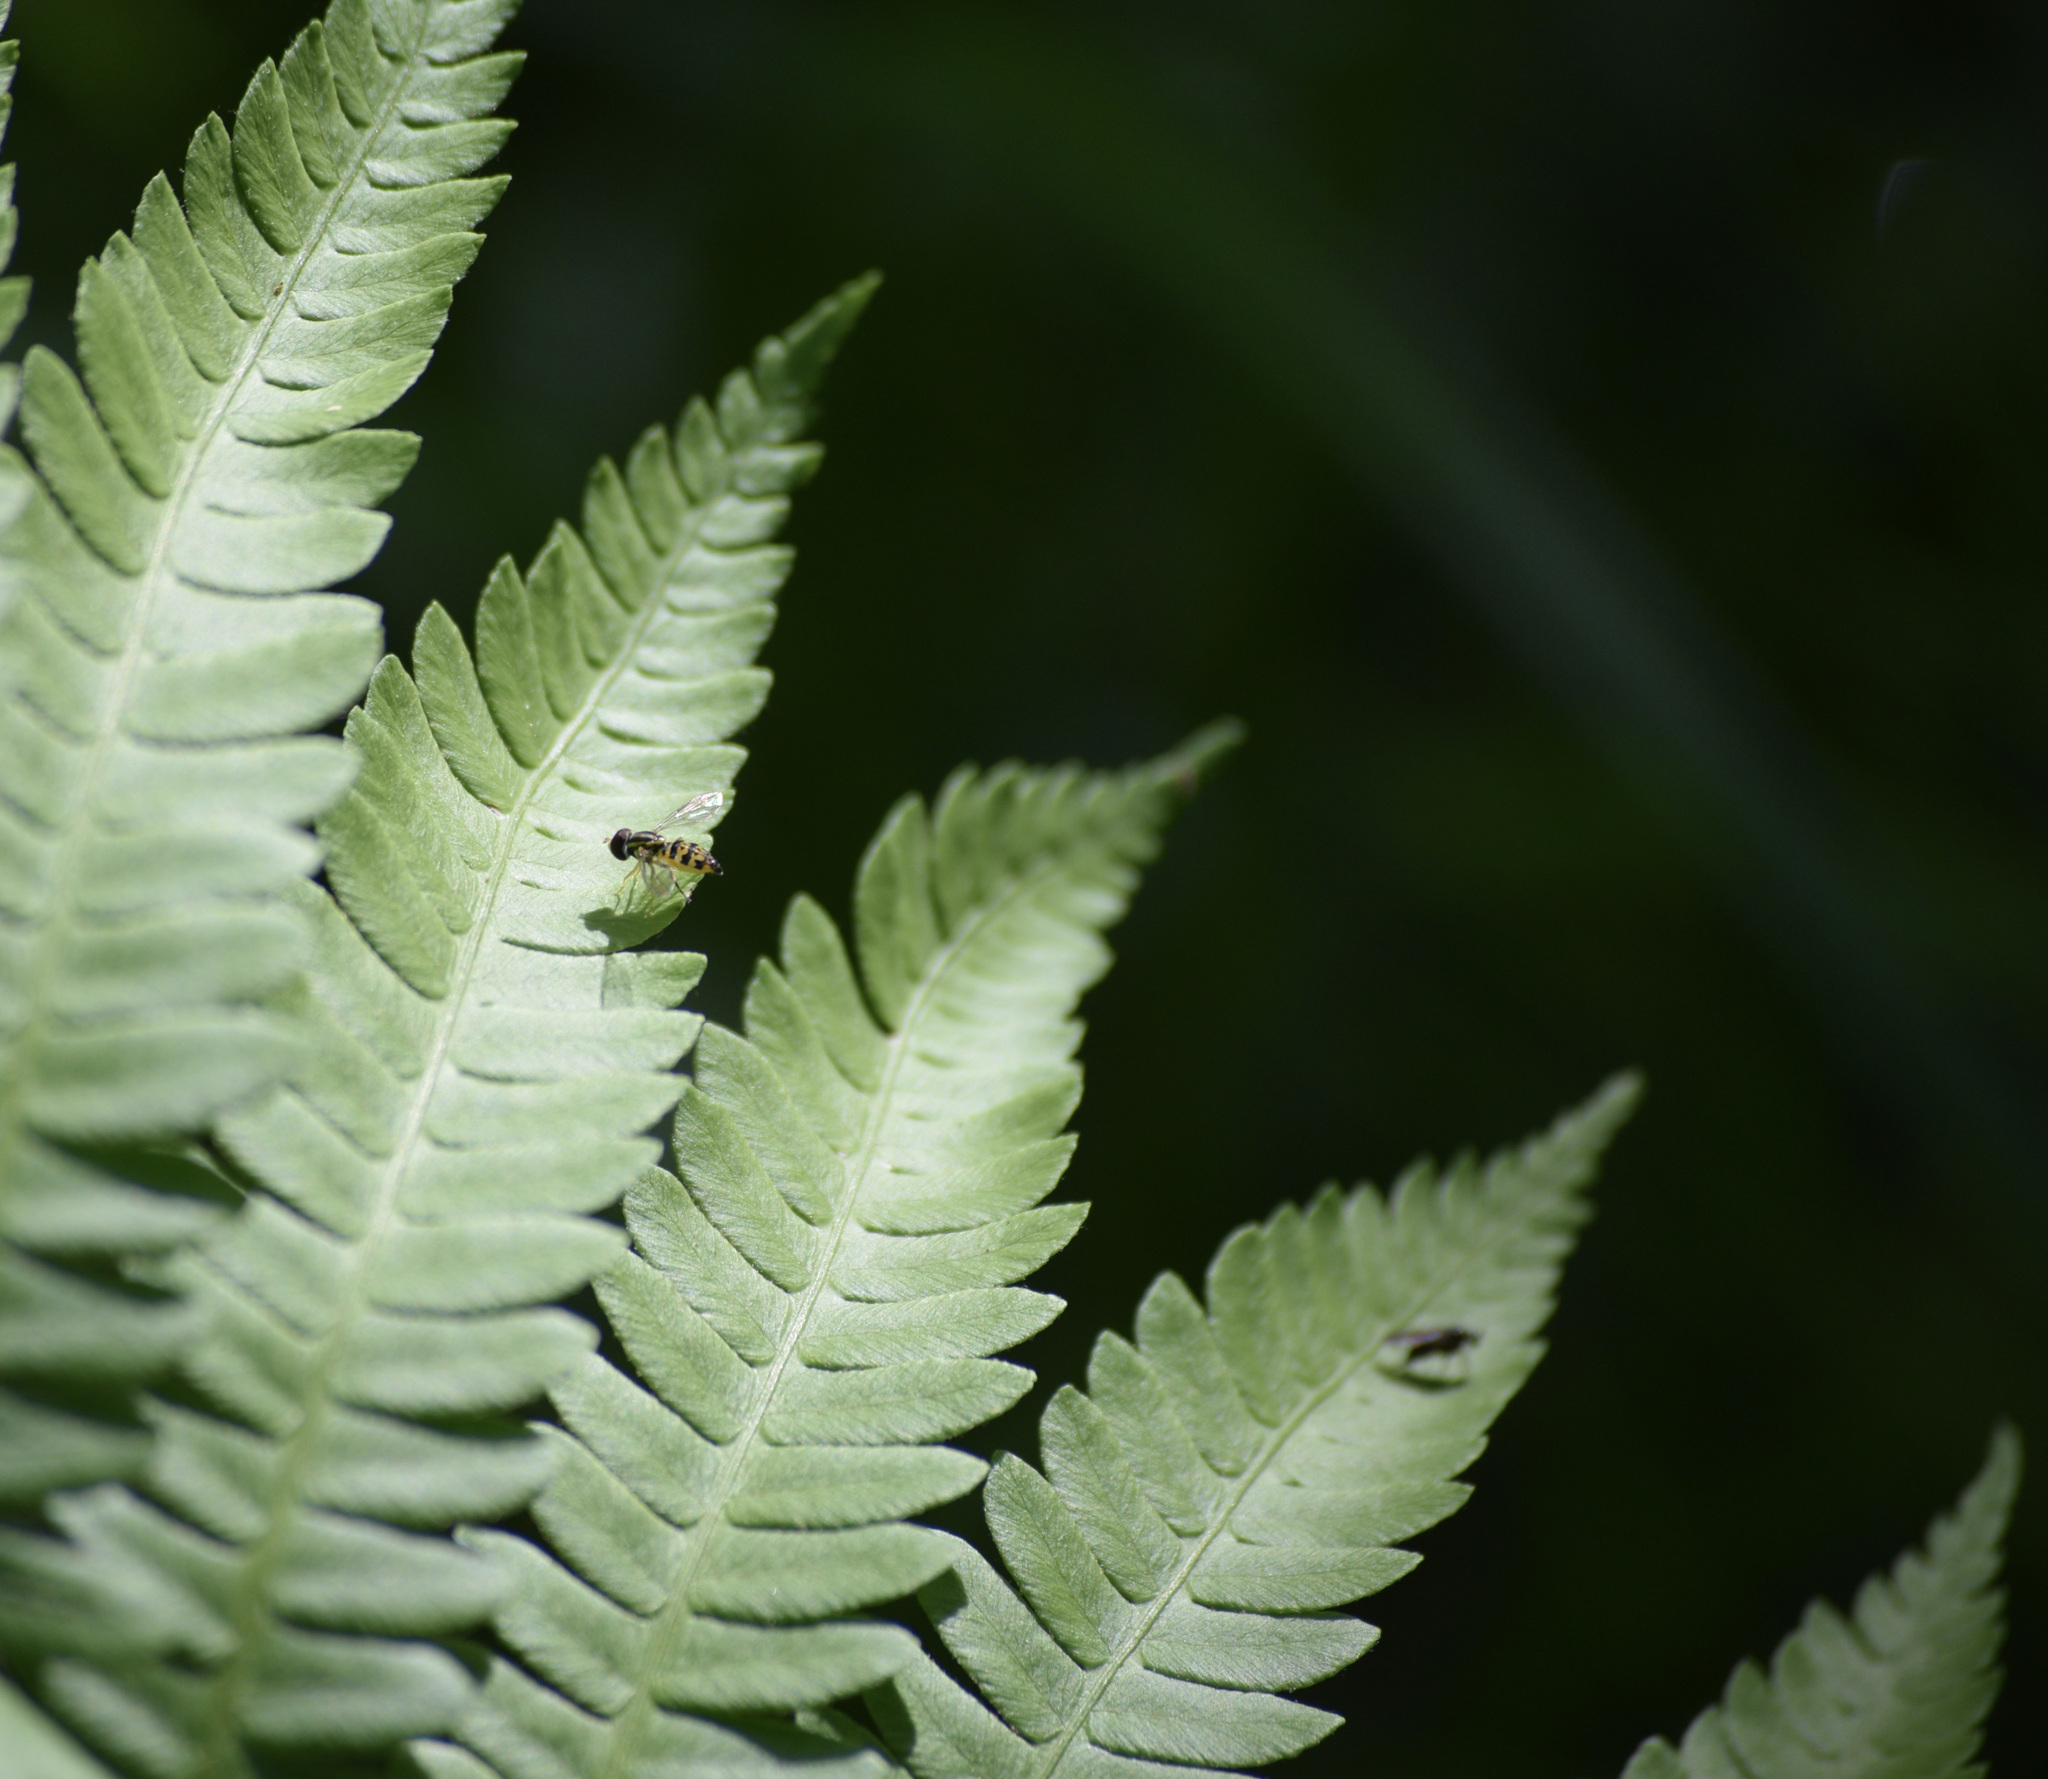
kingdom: Animalia
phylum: Arthropoda
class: Insecta
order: Diptera
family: Syrphidae
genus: Toxomerus
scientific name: Toxomerus geminatus
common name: Eastern calligrapher
